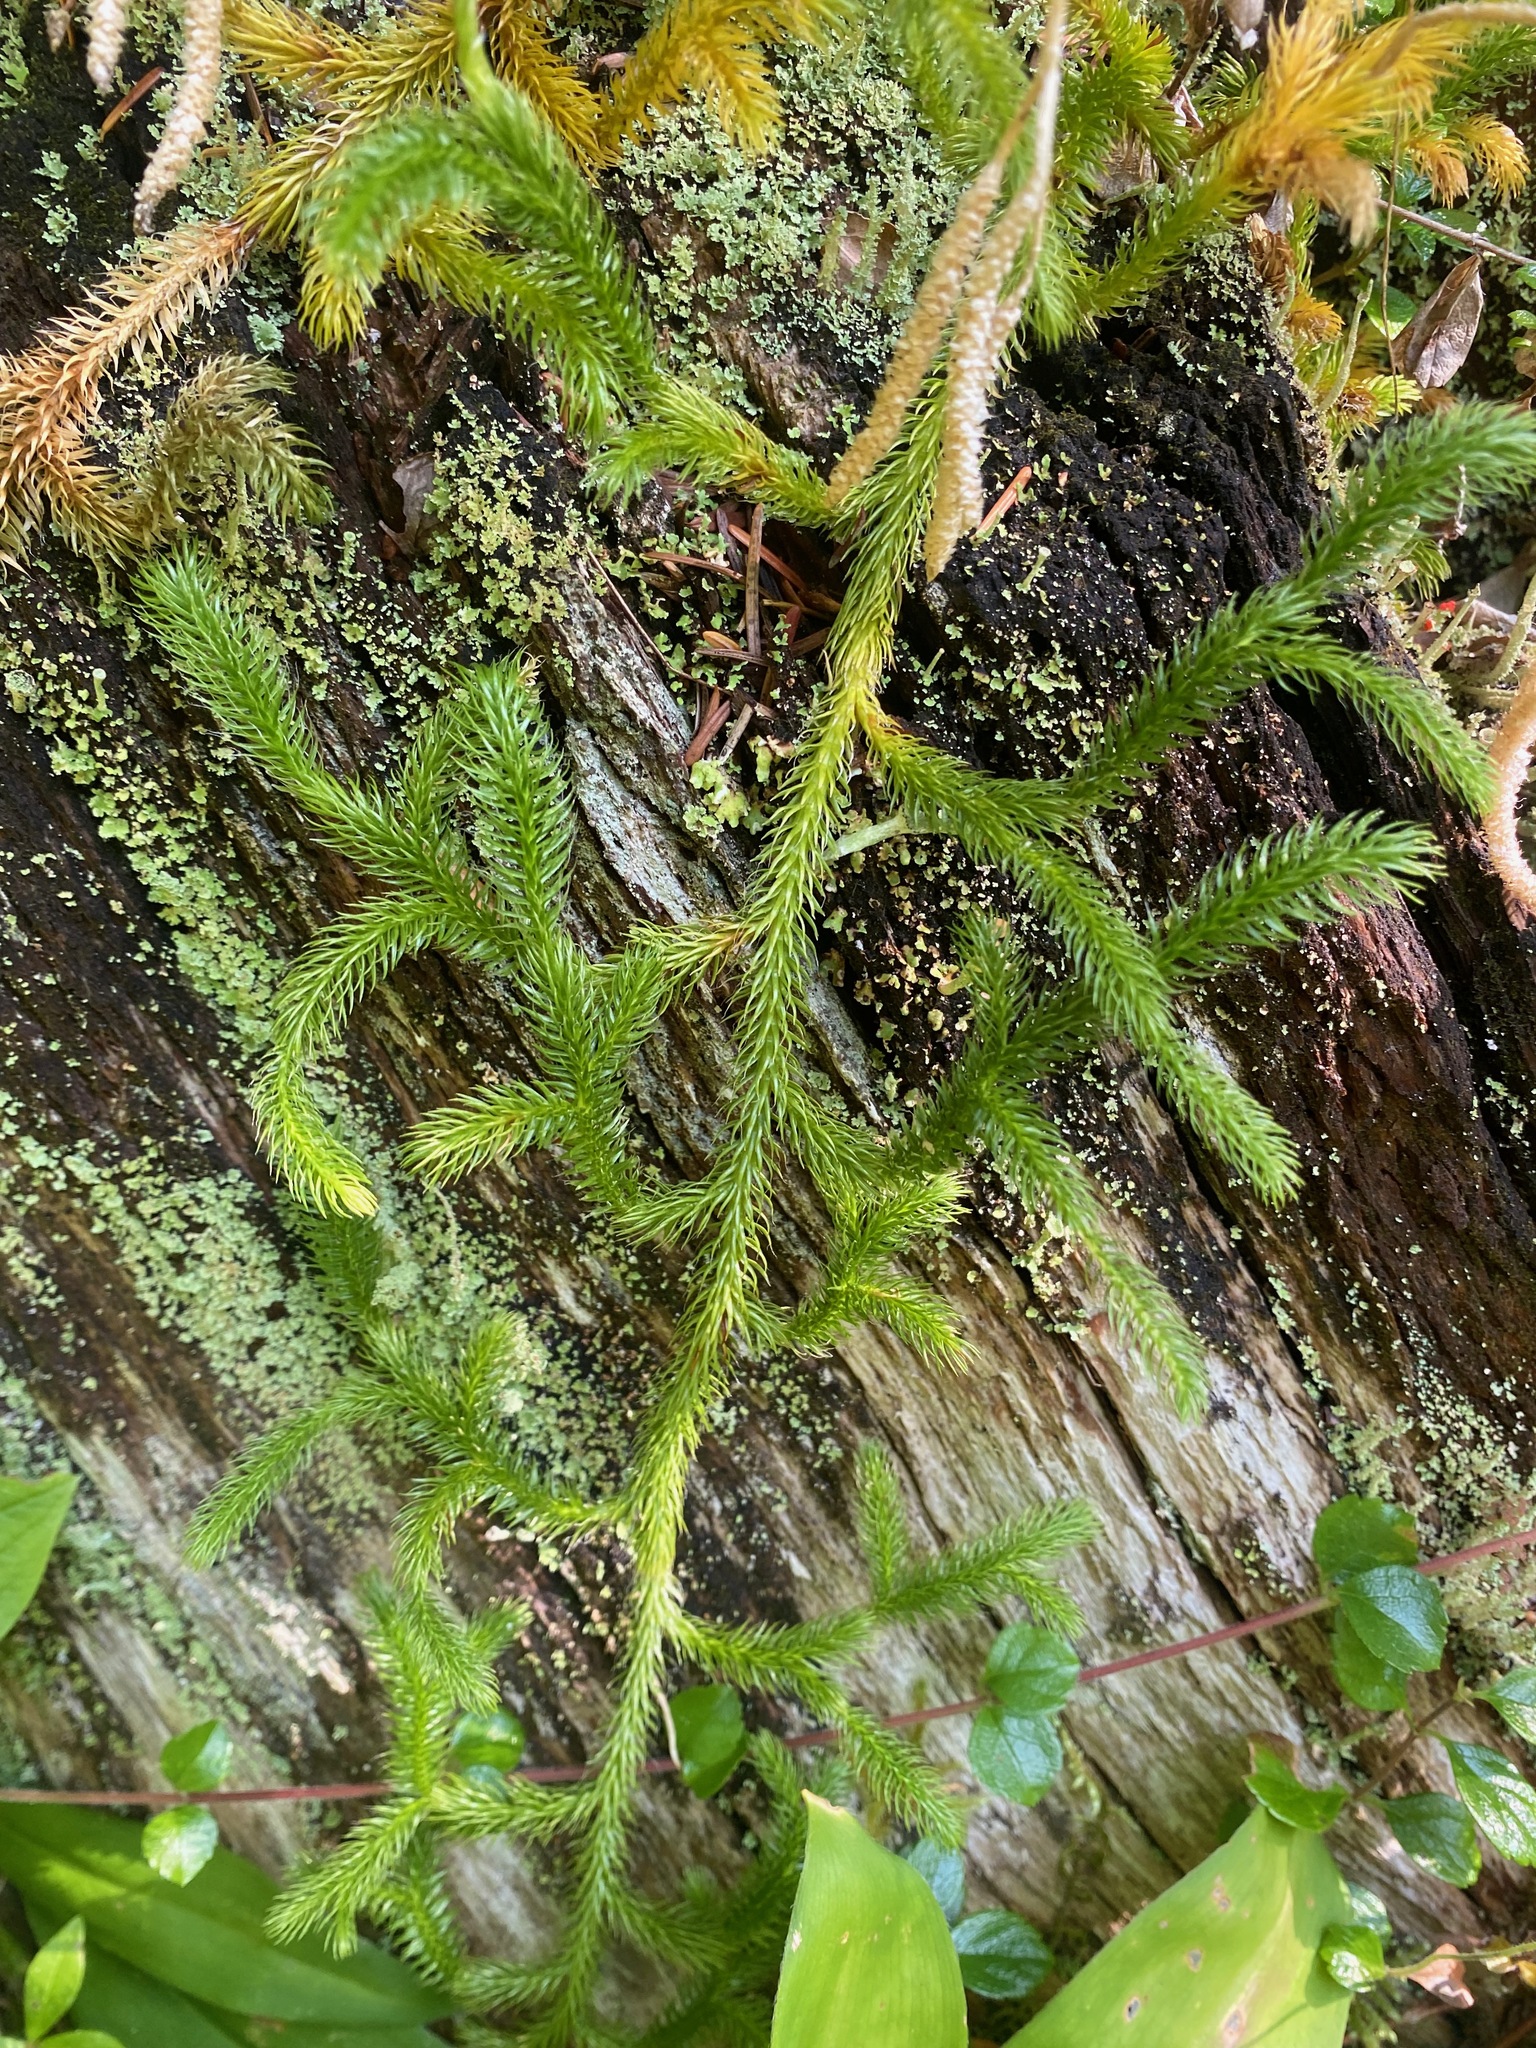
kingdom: Plantae
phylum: Tracheophyta
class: Lycopodiopsida
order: Lycopodiales
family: Lycopodiaceae
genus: Lycopodium
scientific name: Lycopodium clavatum
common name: Stag's-horn clubmoss
